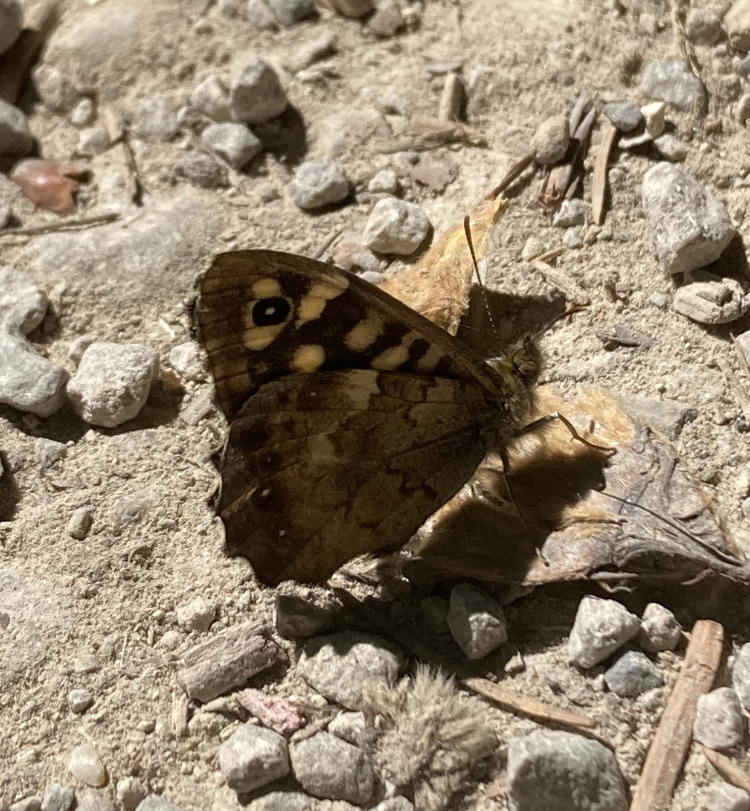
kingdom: Animalia
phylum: Arthropoda
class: Insecta
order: Lepidoptera
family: Nymphalidae
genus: Pararge
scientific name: Pararge aegeria
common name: Speckled wood
